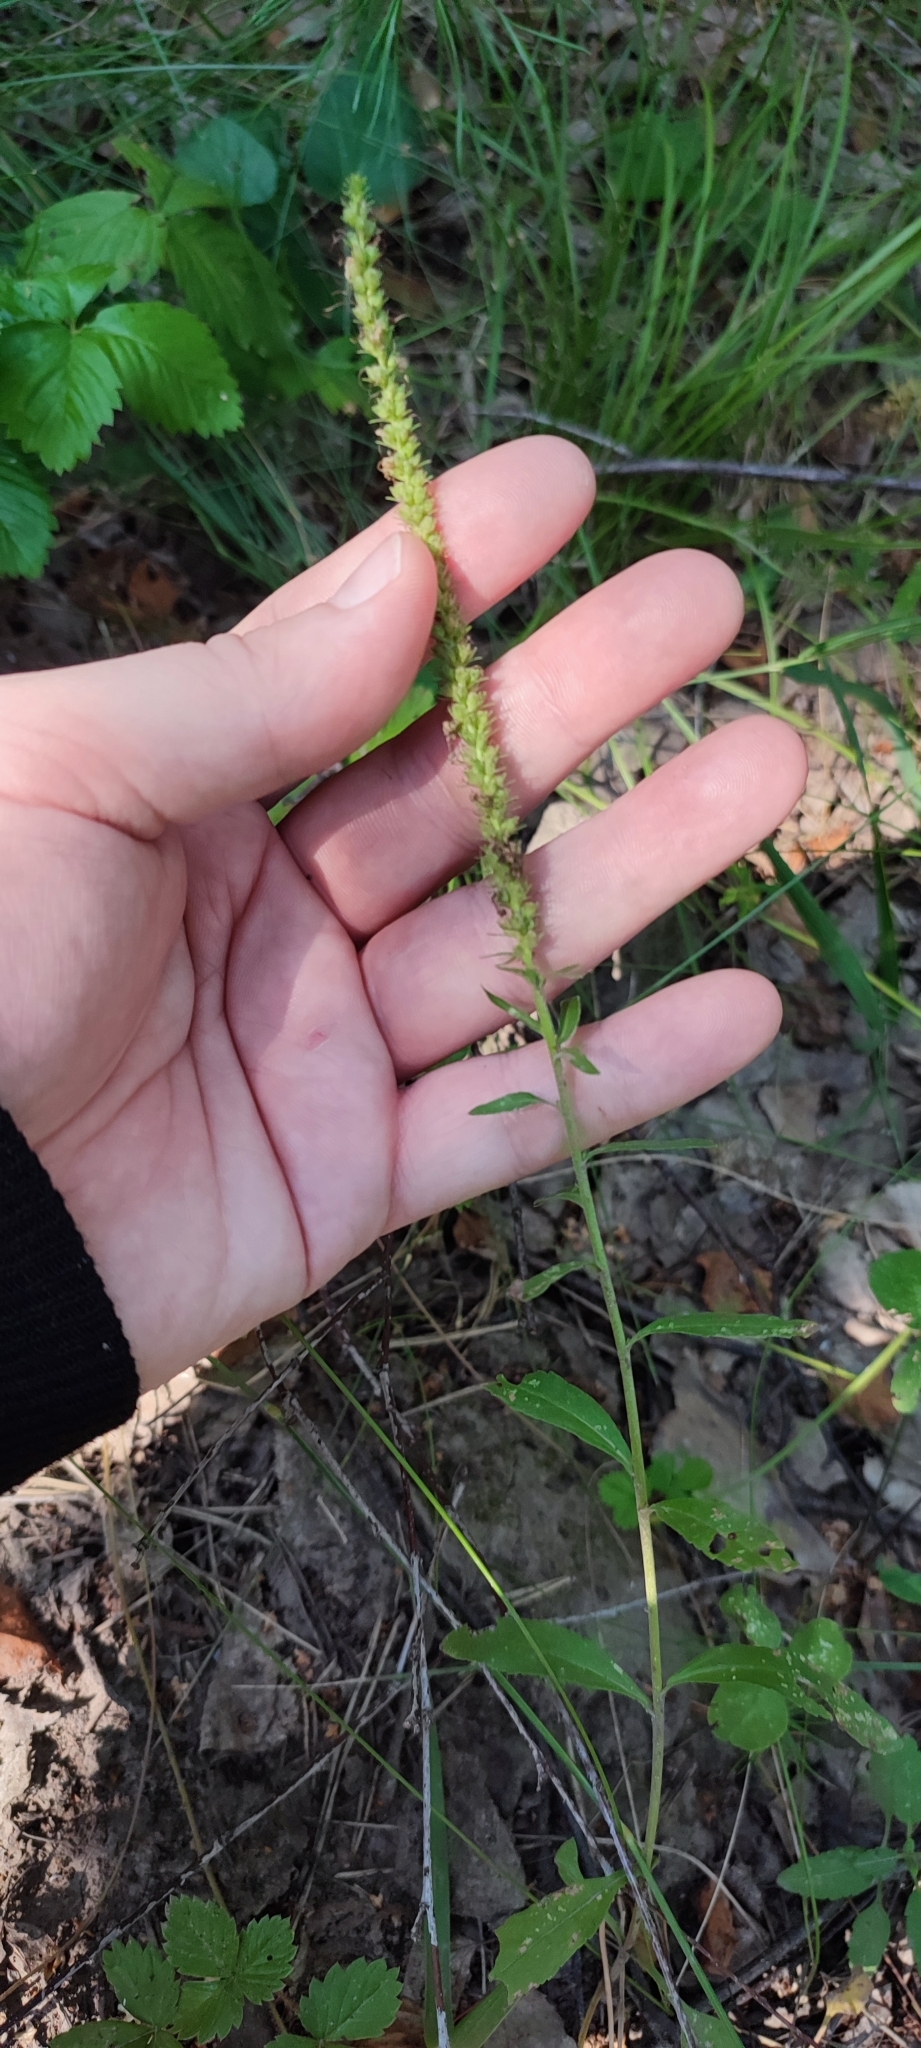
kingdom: Plantae
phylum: Tracheophyta
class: Magnoliopsida
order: Lamiales
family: Plantaginaceae
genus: Veronica
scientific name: Veronica spicata
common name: Spiked speedwell
